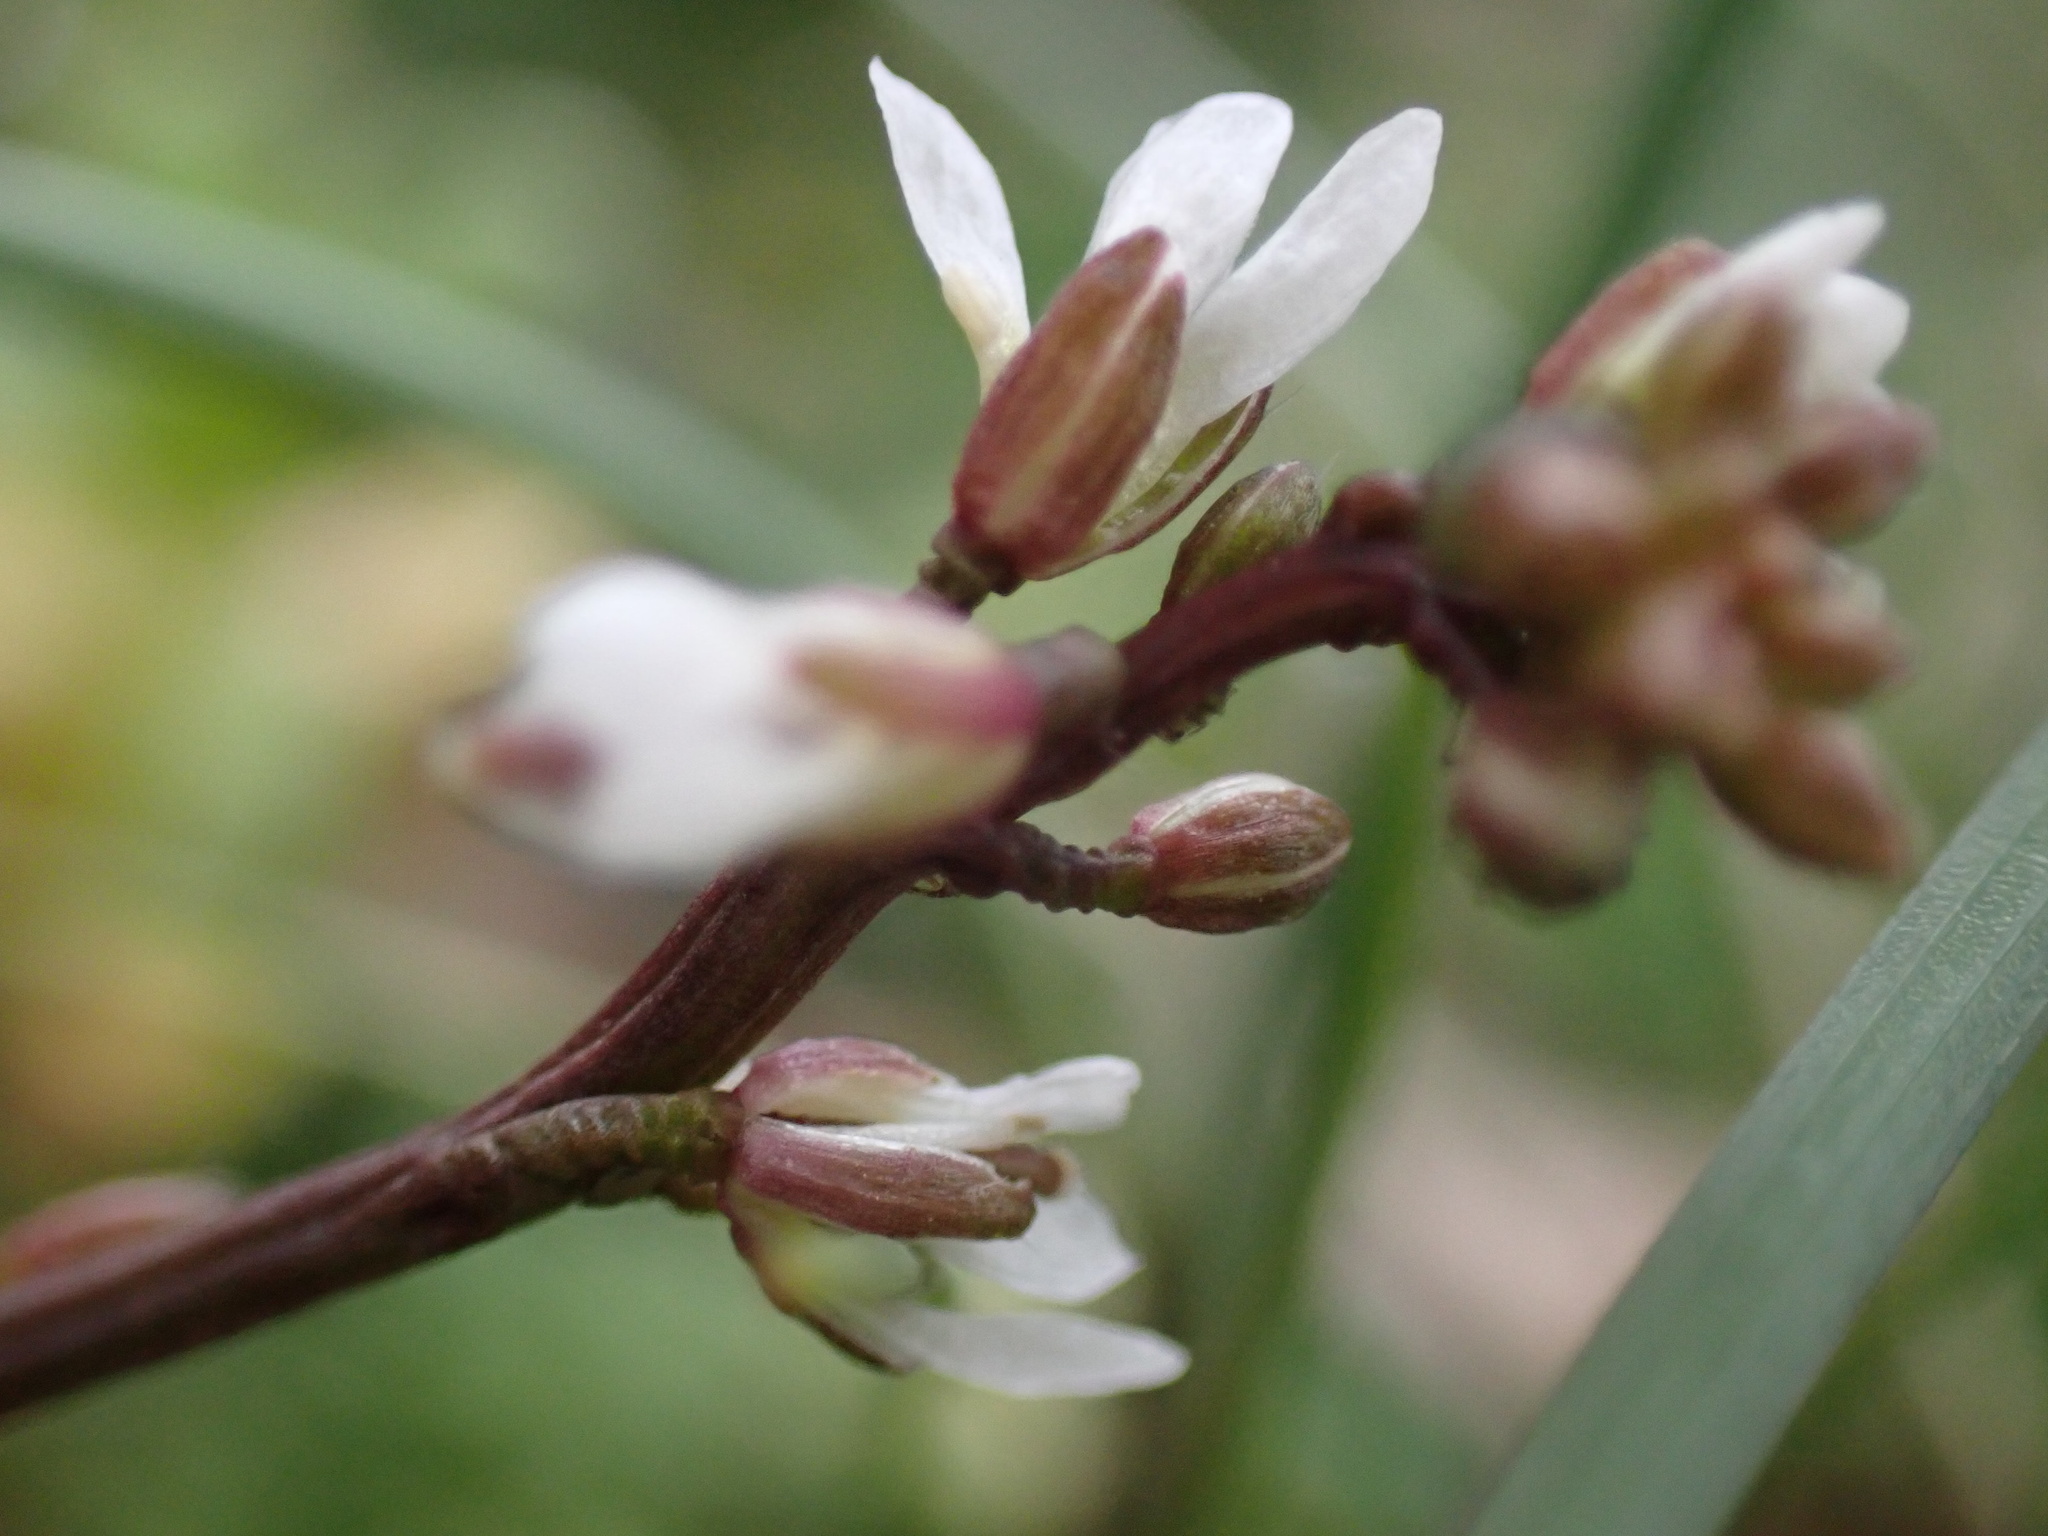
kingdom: Plantae
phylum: Tracheophyta
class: Magnoliopsida
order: Brassicales
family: Brassicaceae
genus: Cardamine
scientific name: Cardamine hirsuta
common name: Hairy bittercress
